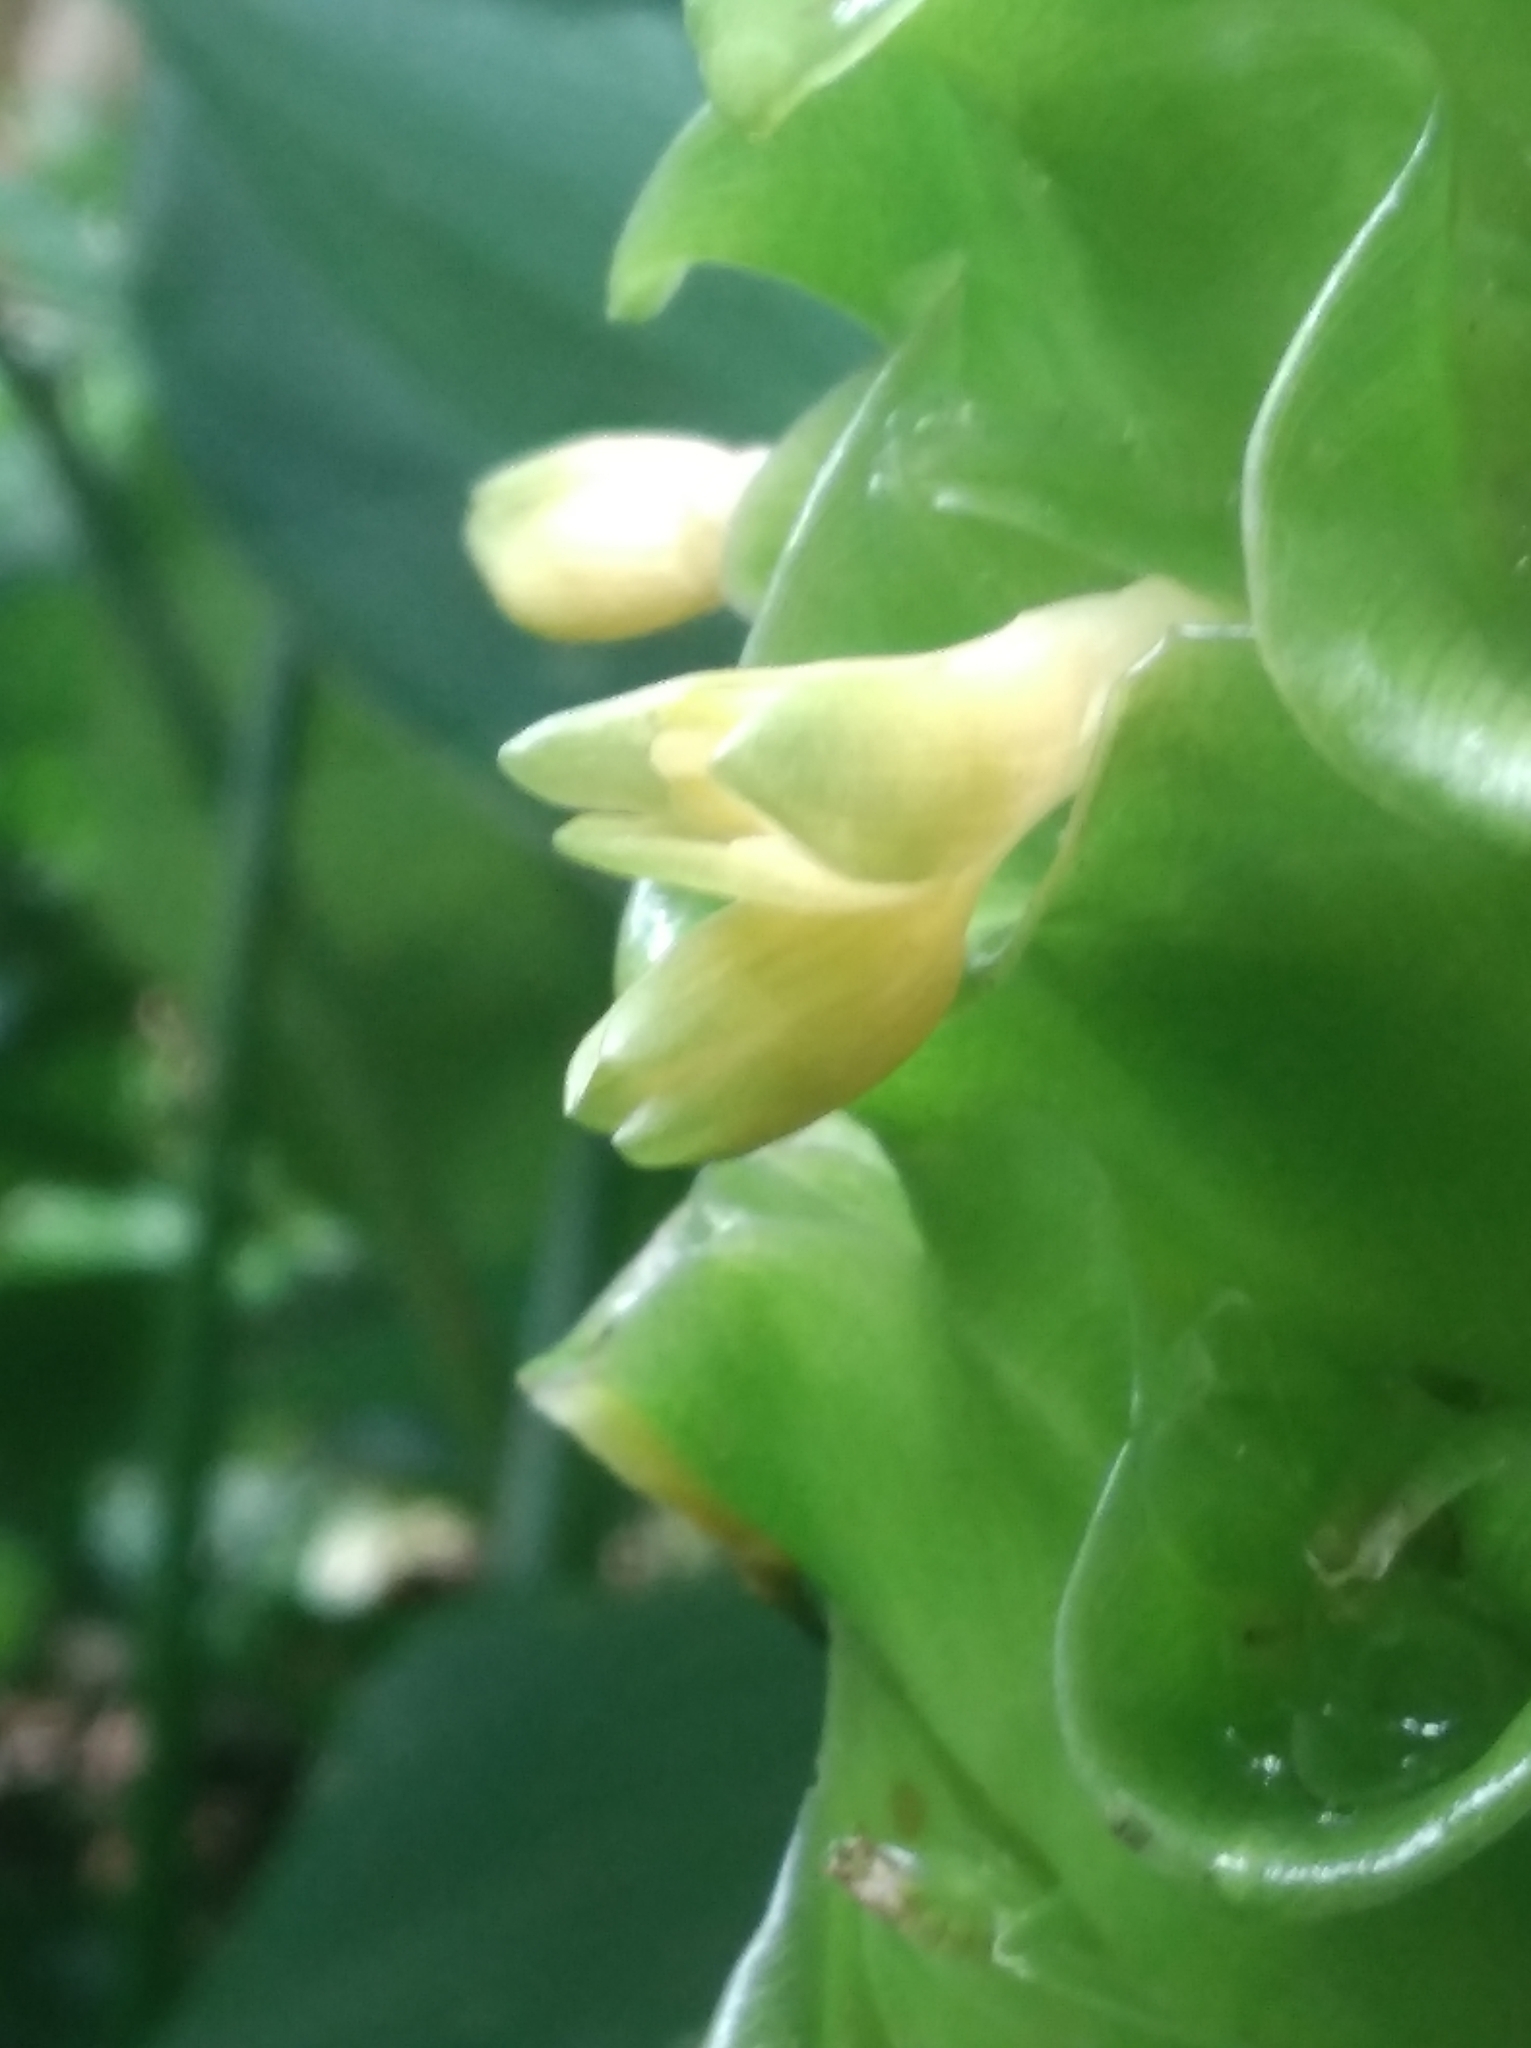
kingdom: Plantae
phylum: Tracheophyta
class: Liliopsida
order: Zingiberales
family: Marantaceae
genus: Goeppertia
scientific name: Goeppertia cylindrica
